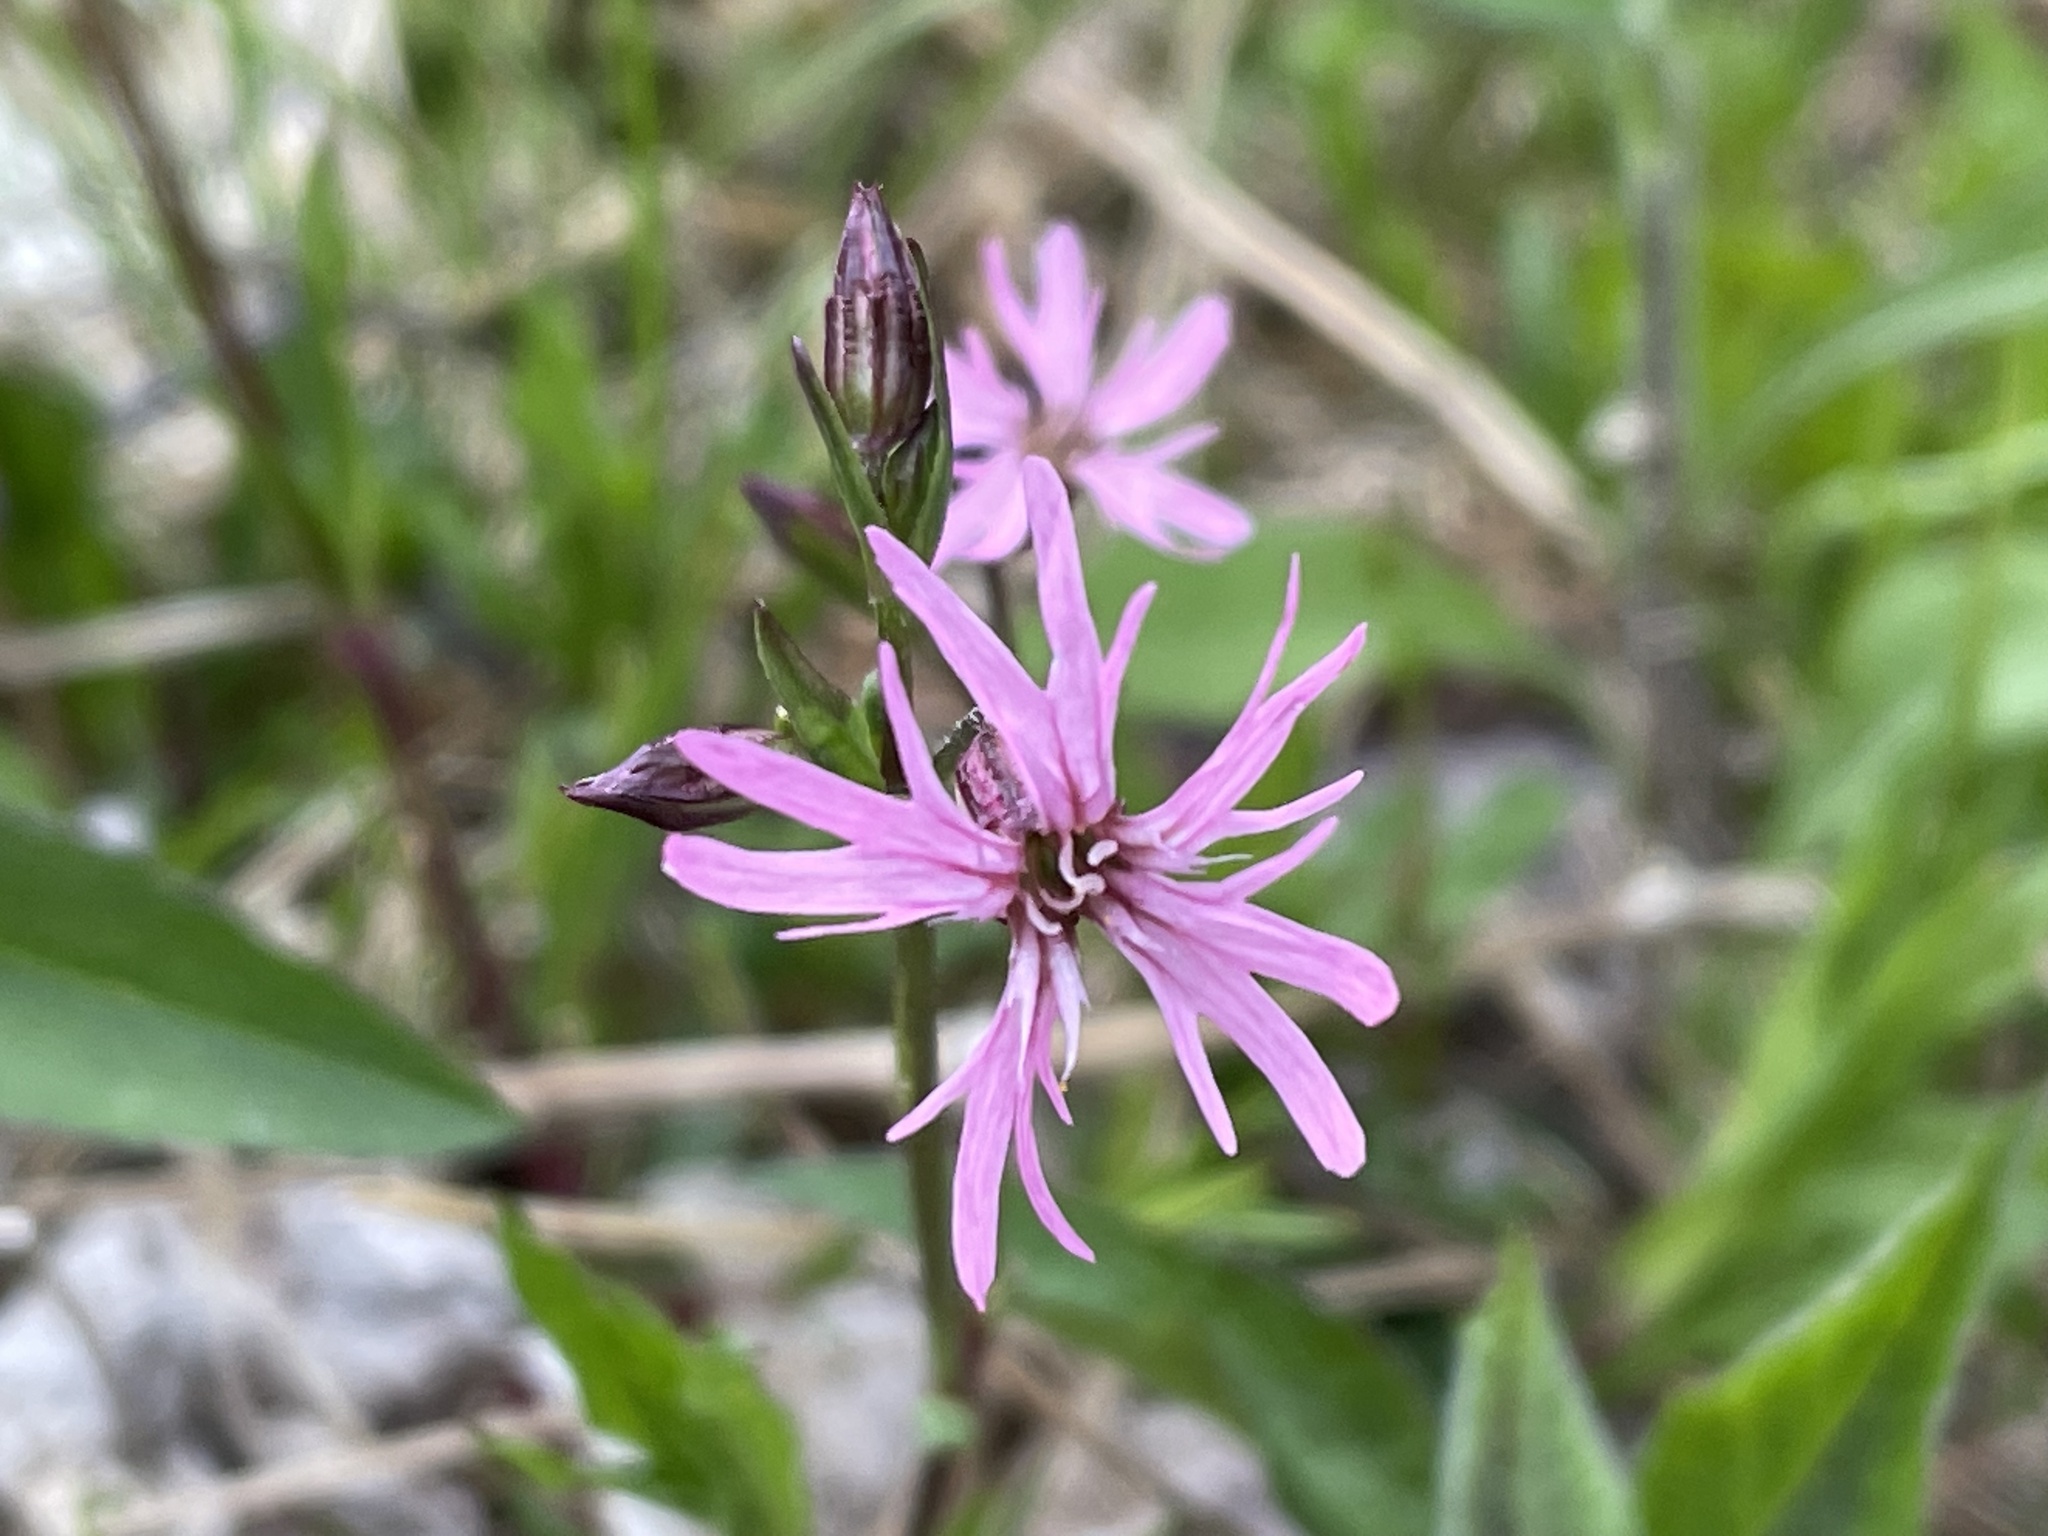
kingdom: Plantae
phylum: Tracheophyta
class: Magnoliopsida
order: Caryophyllales
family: Caryophyllaceae
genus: Silene
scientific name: Silene flos-cuculi
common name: Ragged-robin
